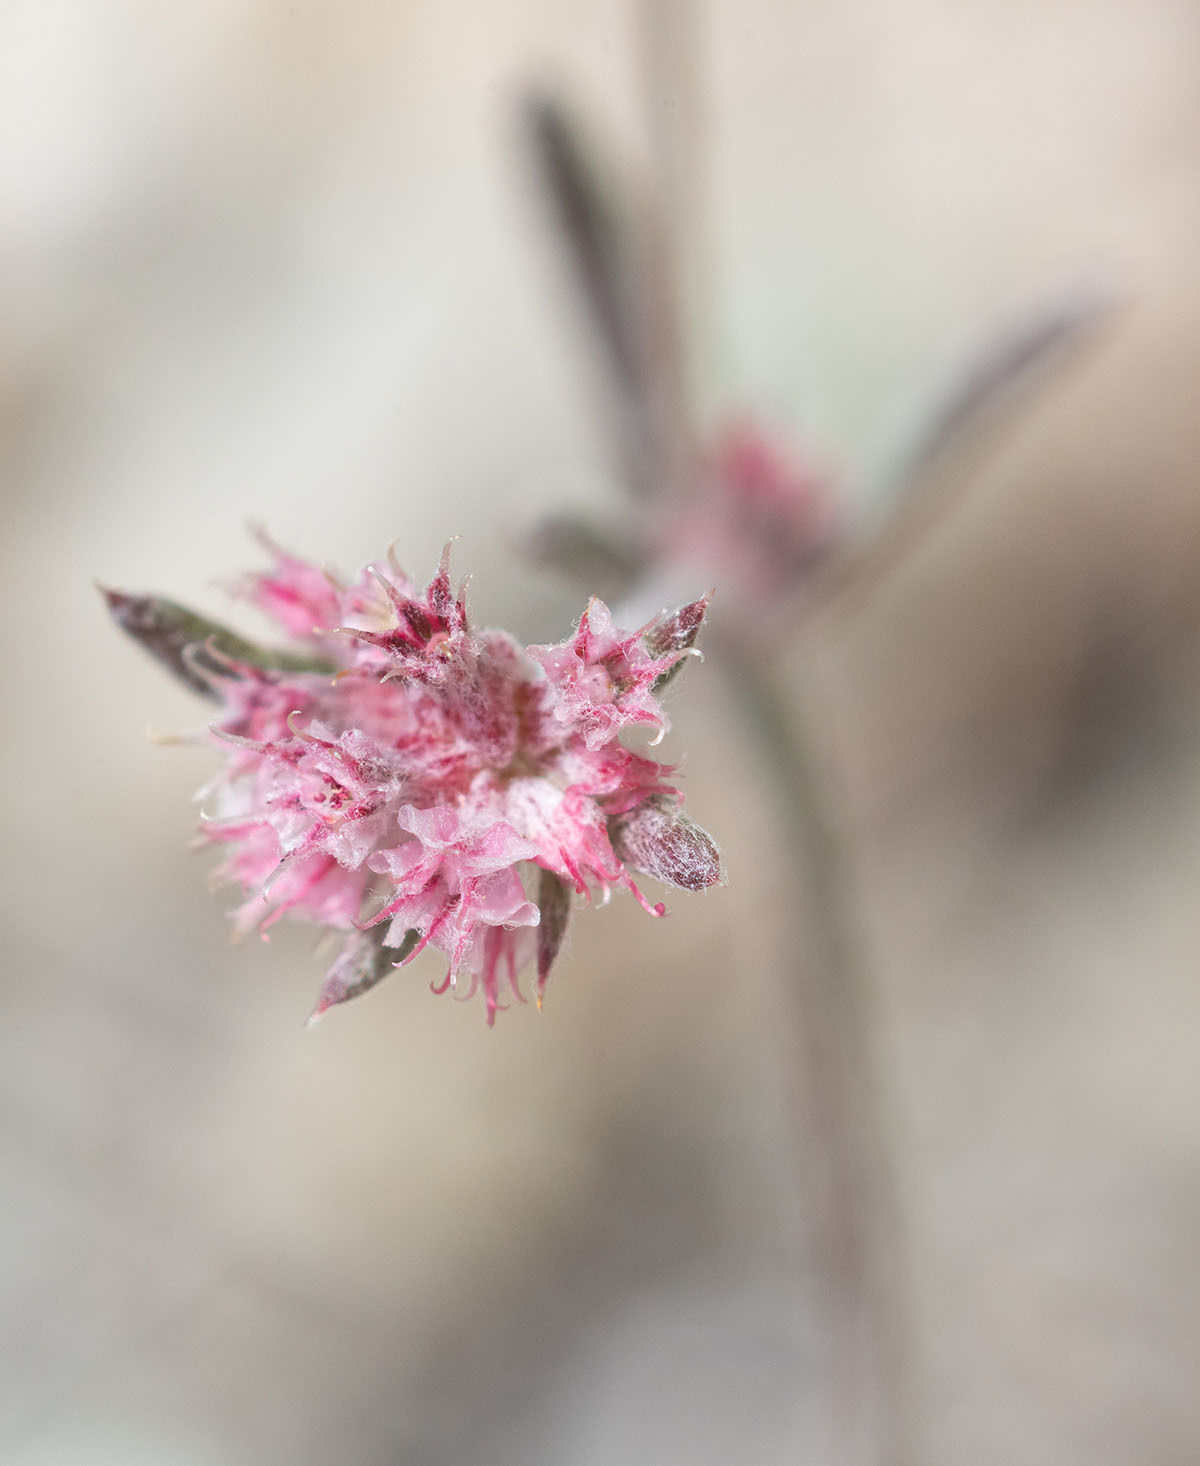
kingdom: Plantae
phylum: Tracheophyta
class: Magnoliopsida
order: Caryophyllales
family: Polygonaceae
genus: Chorizanthe
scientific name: Chorizanthe membranacea
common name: Pink spineflower
